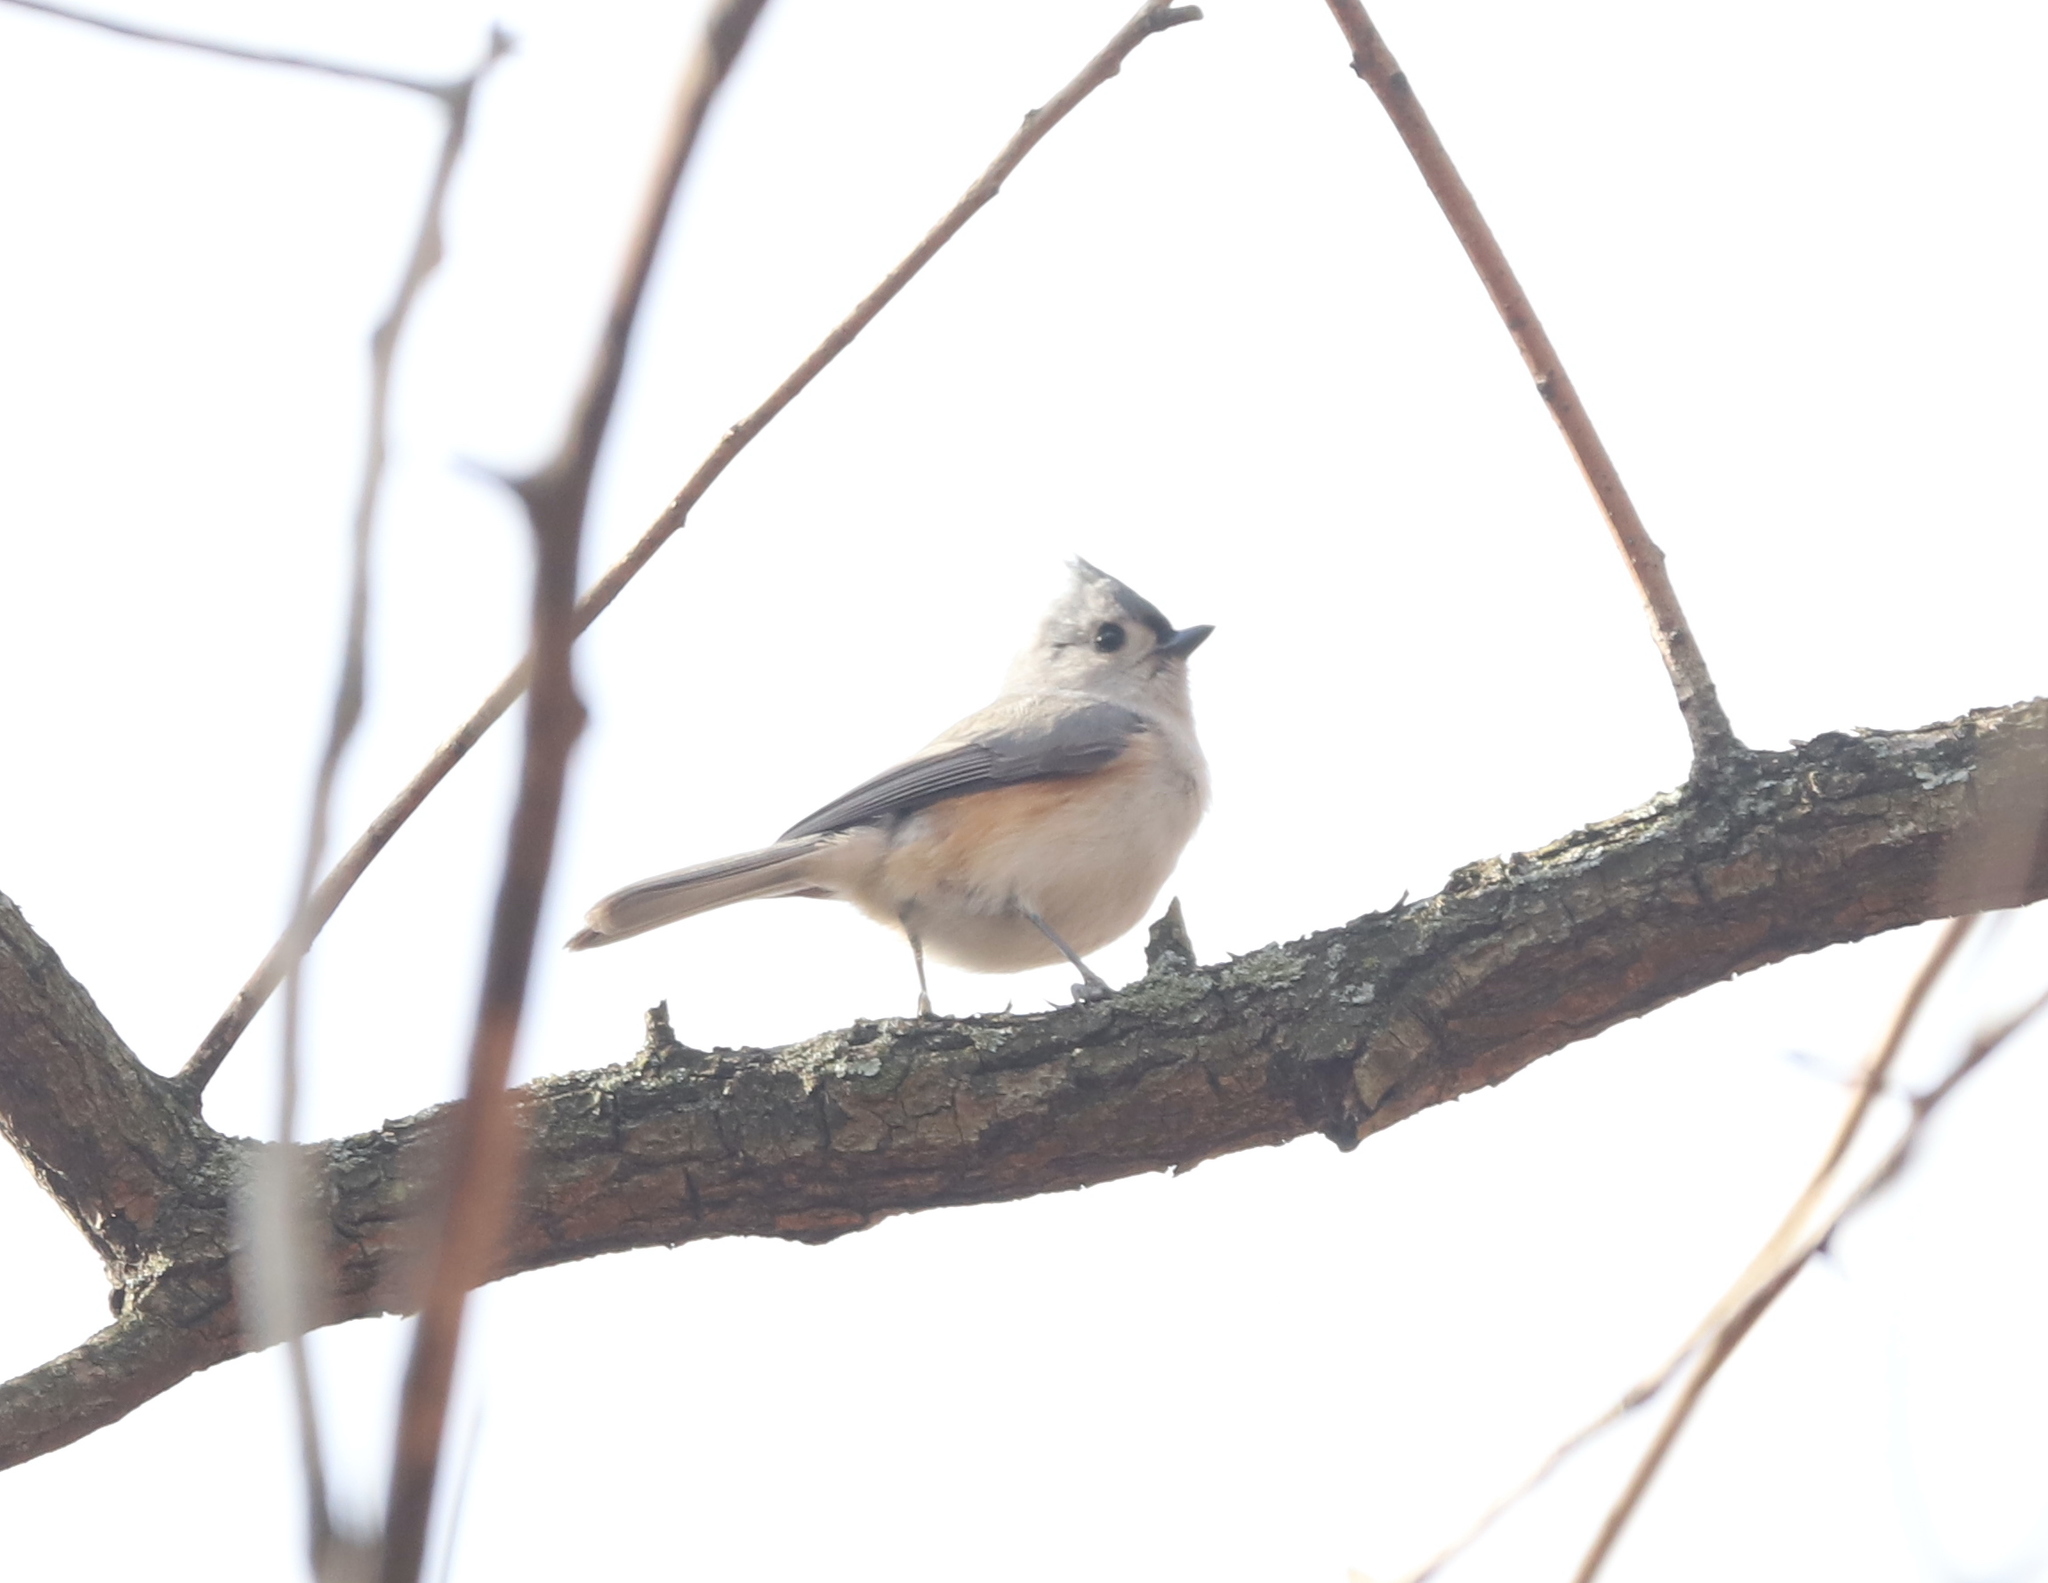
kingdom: Animalia
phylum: Chordata
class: Aves
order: Passeriformes
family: Paridae
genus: Baeolophus
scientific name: Baeolophus bicolor
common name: Tufted titmouse
